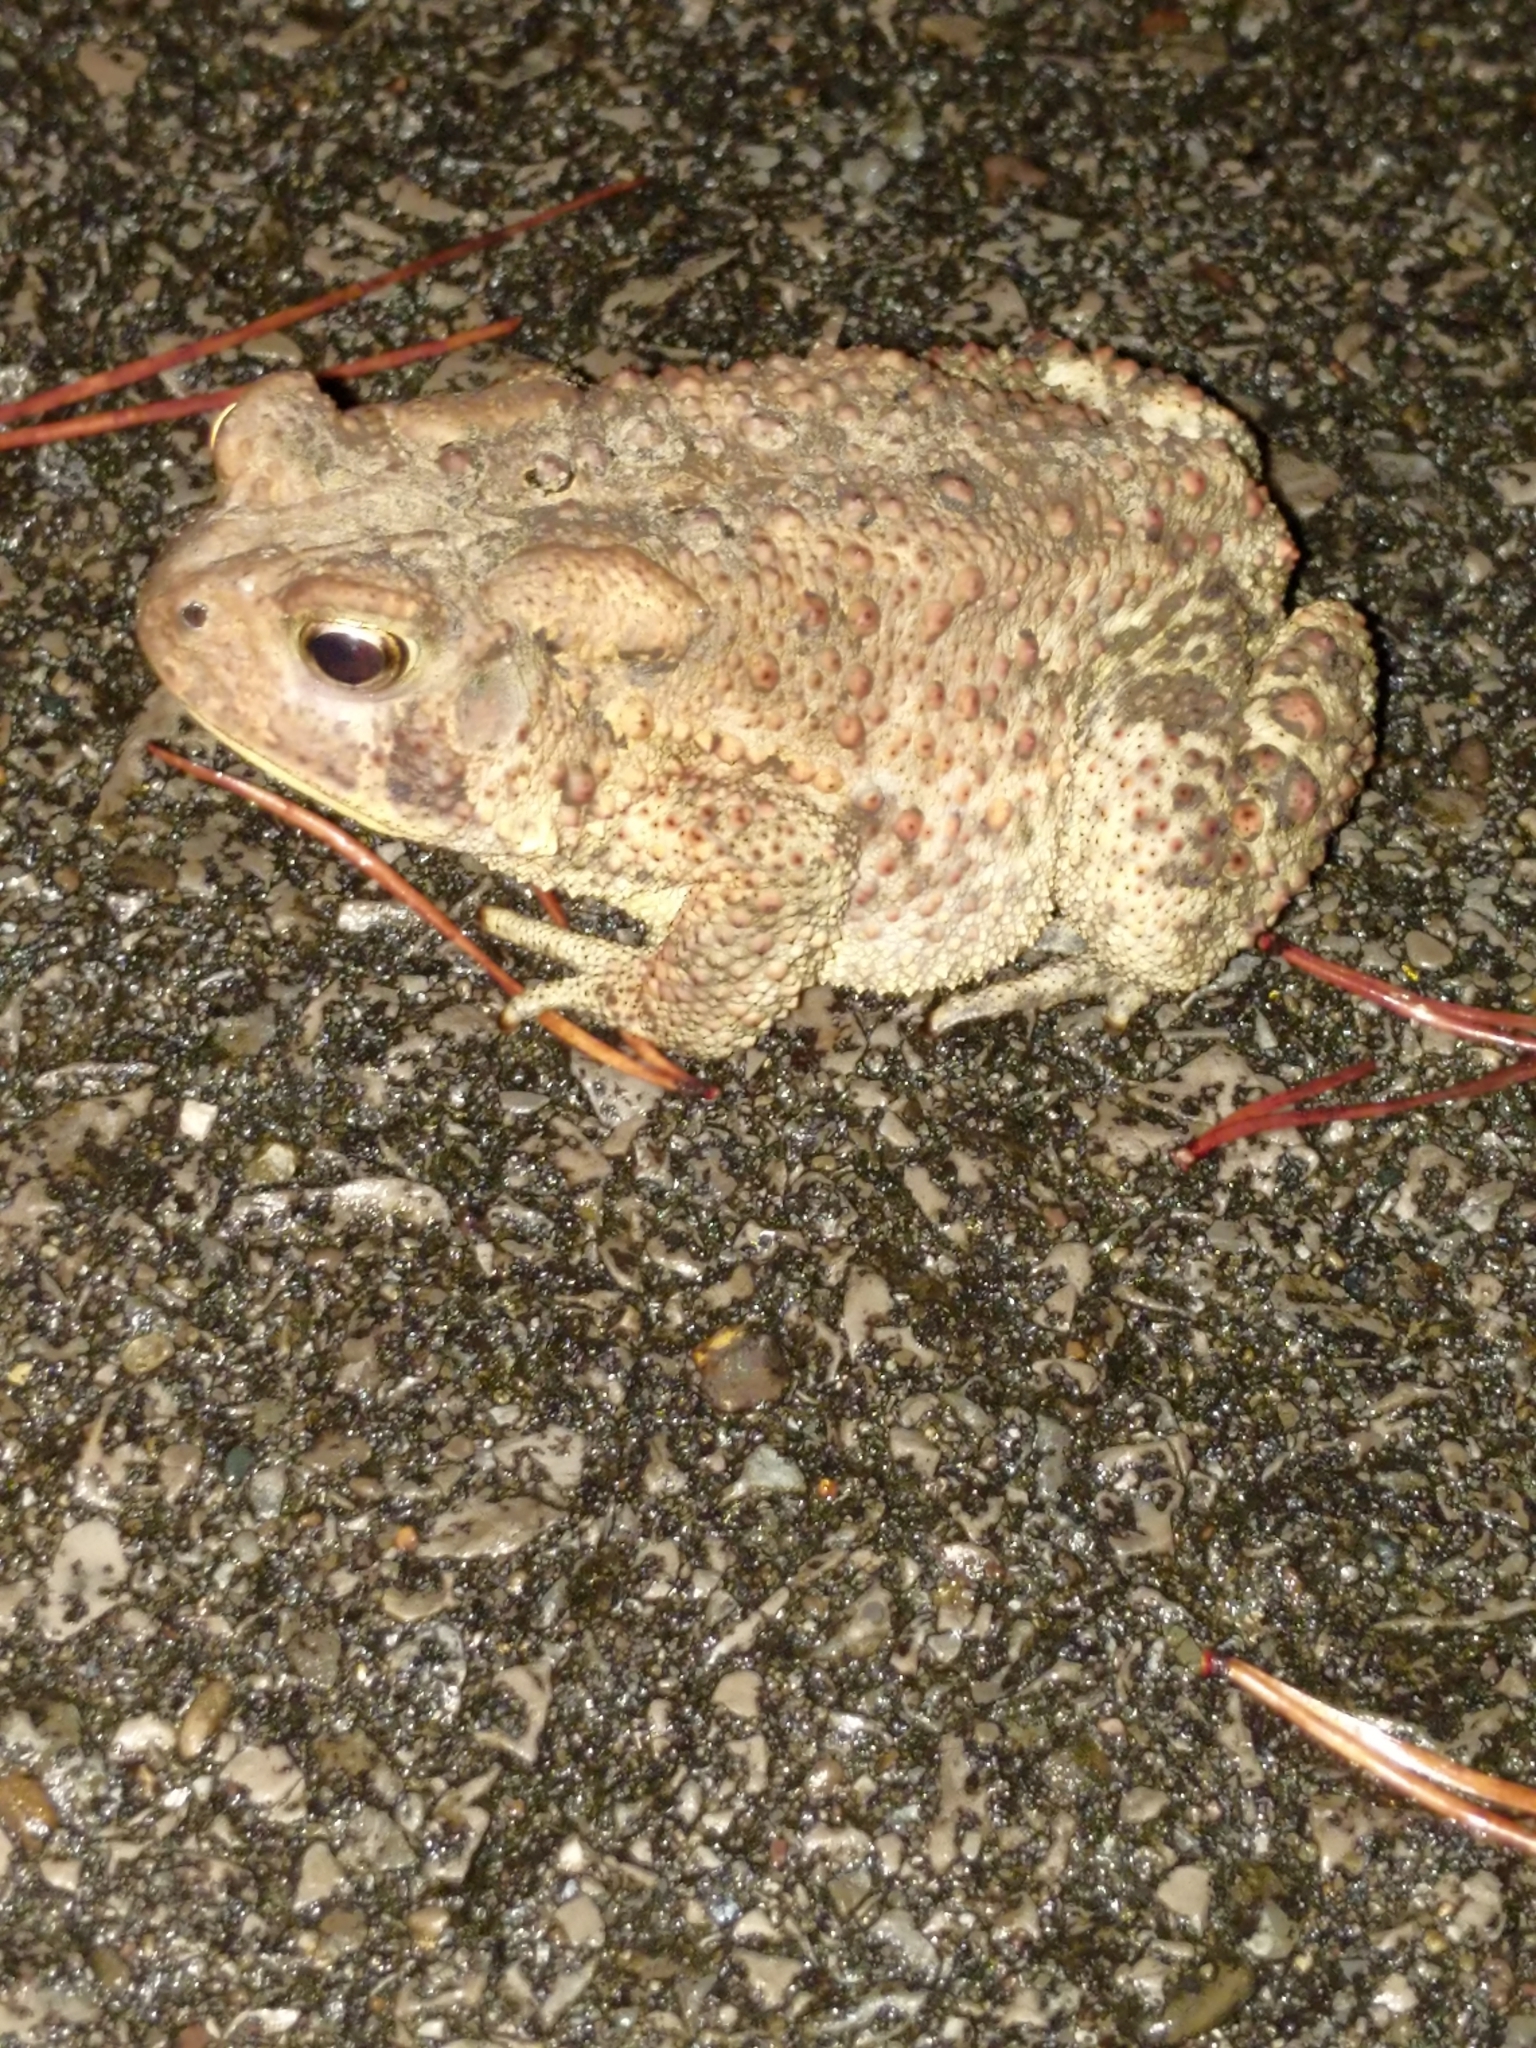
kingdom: Animalia
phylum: Chordata
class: Amphibia
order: Anura
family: Bufonidae
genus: Anaxyrus
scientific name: Anaxyrus americanus
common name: American toad
